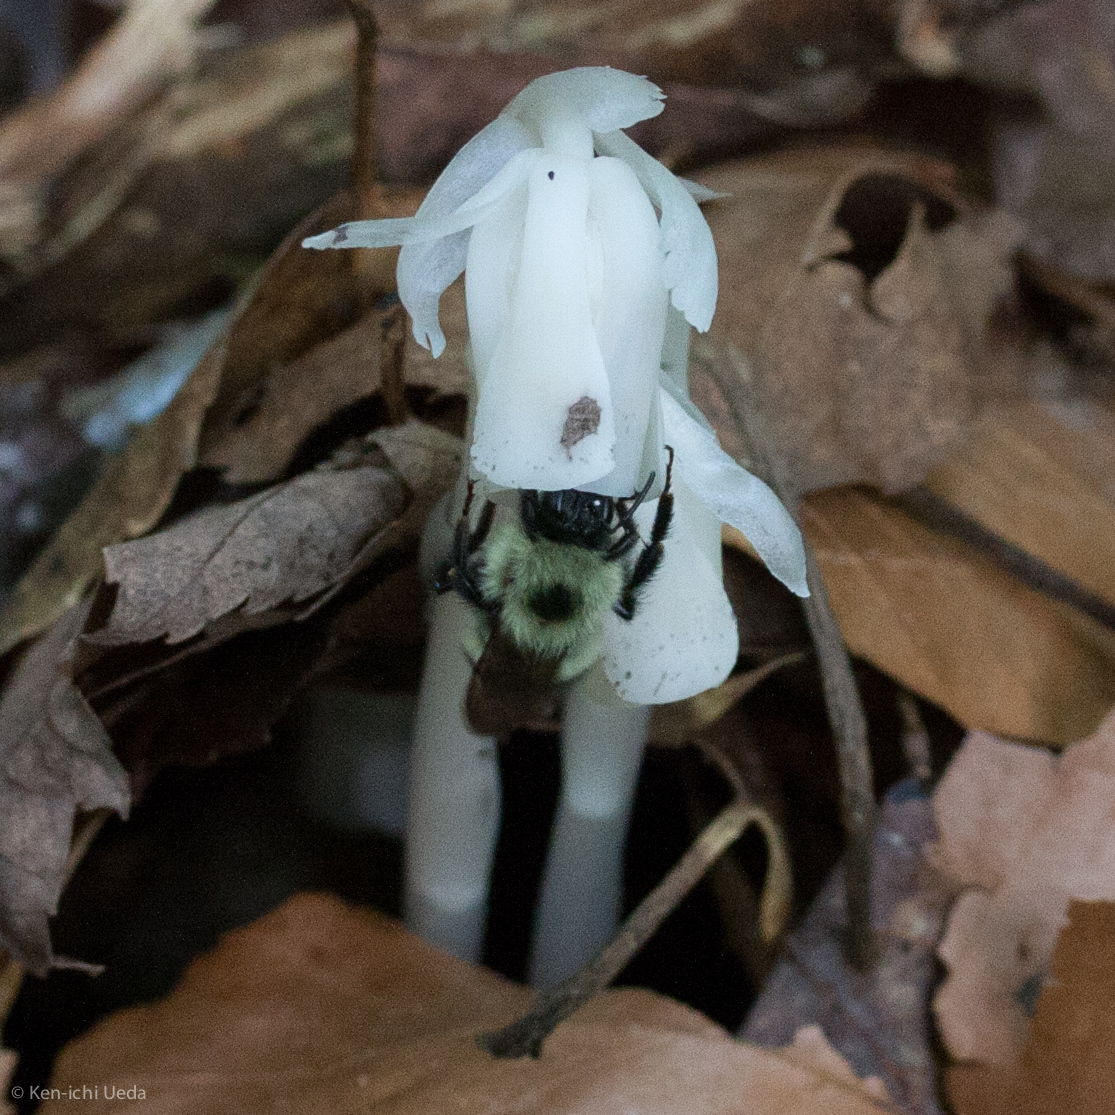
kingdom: Animalia
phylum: Arthropoda
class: Insecta
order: Hymenoptera
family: Apidae
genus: Pyrobombus
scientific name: Pyrobombus
